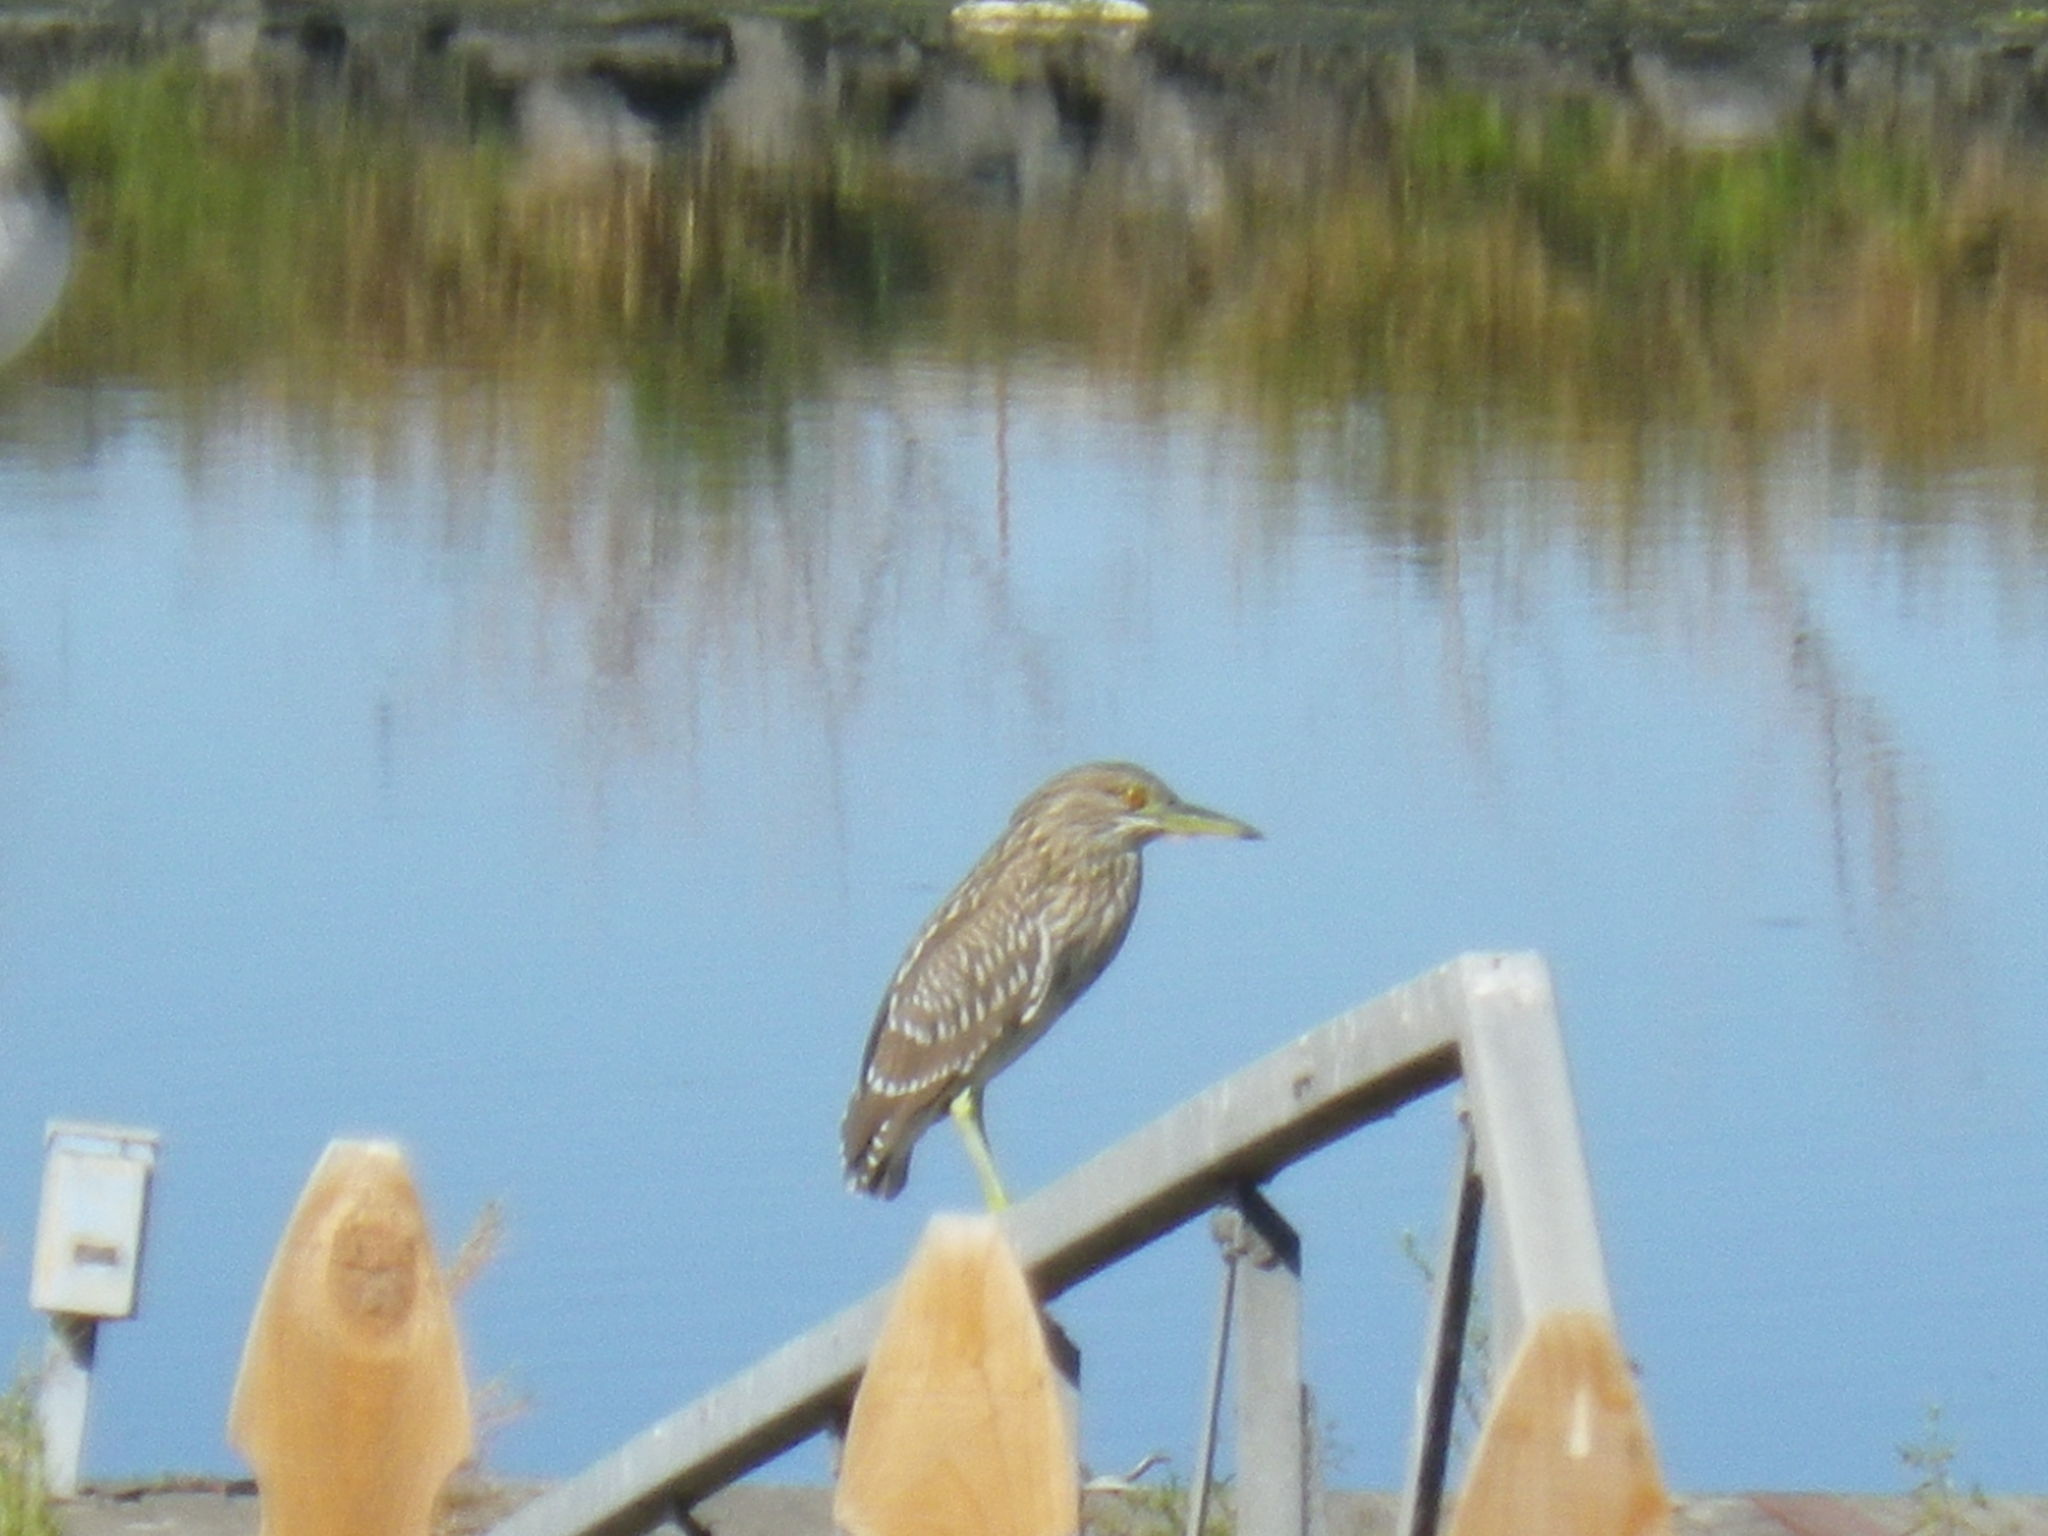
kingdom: Animalia
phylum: Chordata
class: Aves
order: Pelecaniformes
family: Ardeidae
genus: Nycticorax
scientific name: Nycticorax nycticorax
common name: Black-crowned night heron
